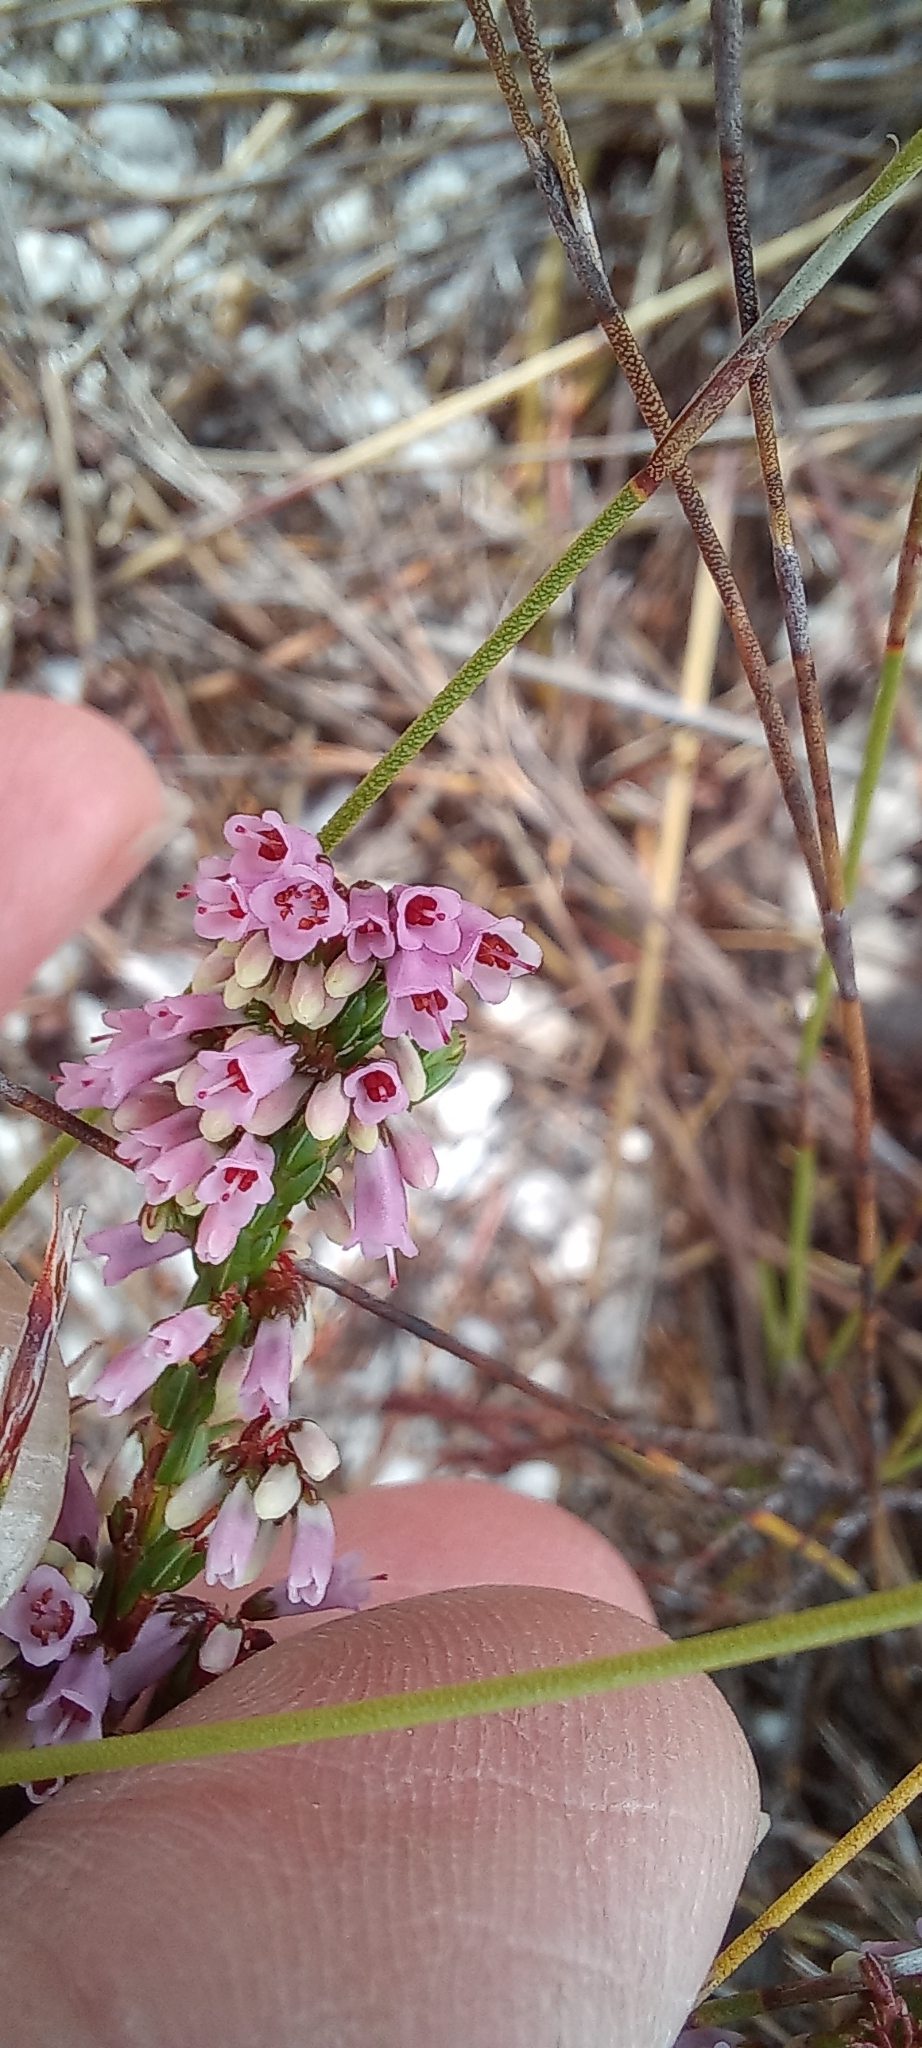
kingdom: Plantae
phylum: Tracheophyta
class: Magnoliopsida
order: Ericales
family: Ericaceae
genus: Erica
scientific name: Erica equisetifolia
